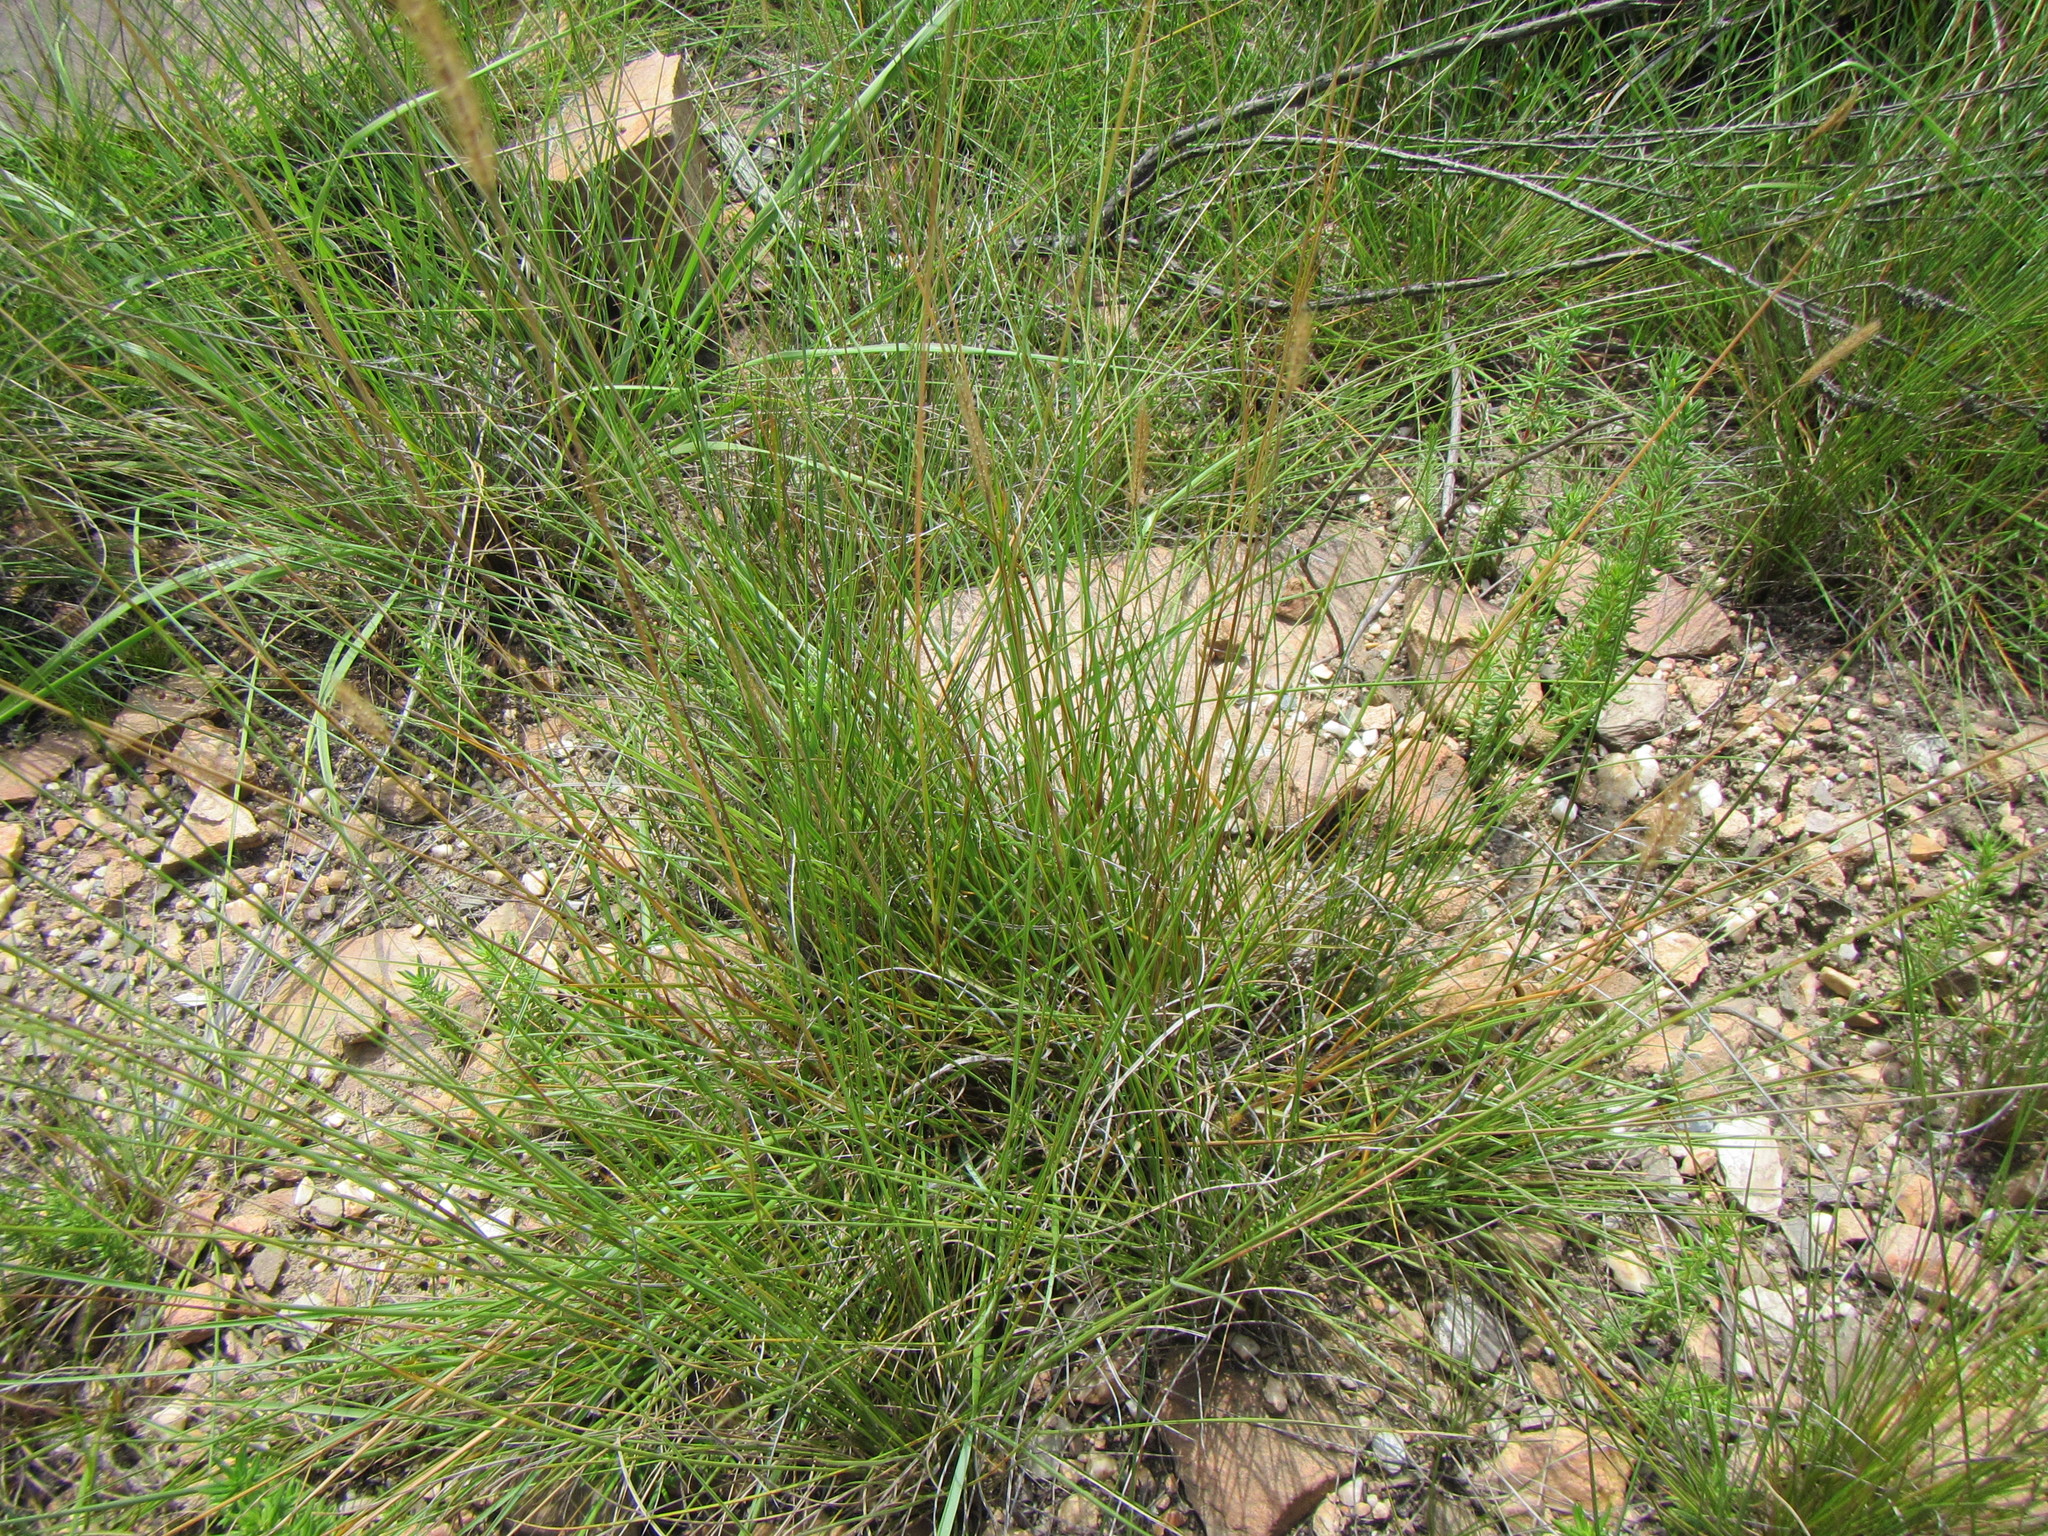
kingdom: Plantae
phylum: Tracheophyta
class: Liliopsida
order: Poales
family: Poaceae
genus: Setaria
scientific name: Setaria sphacelata
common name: African bristlegrass
